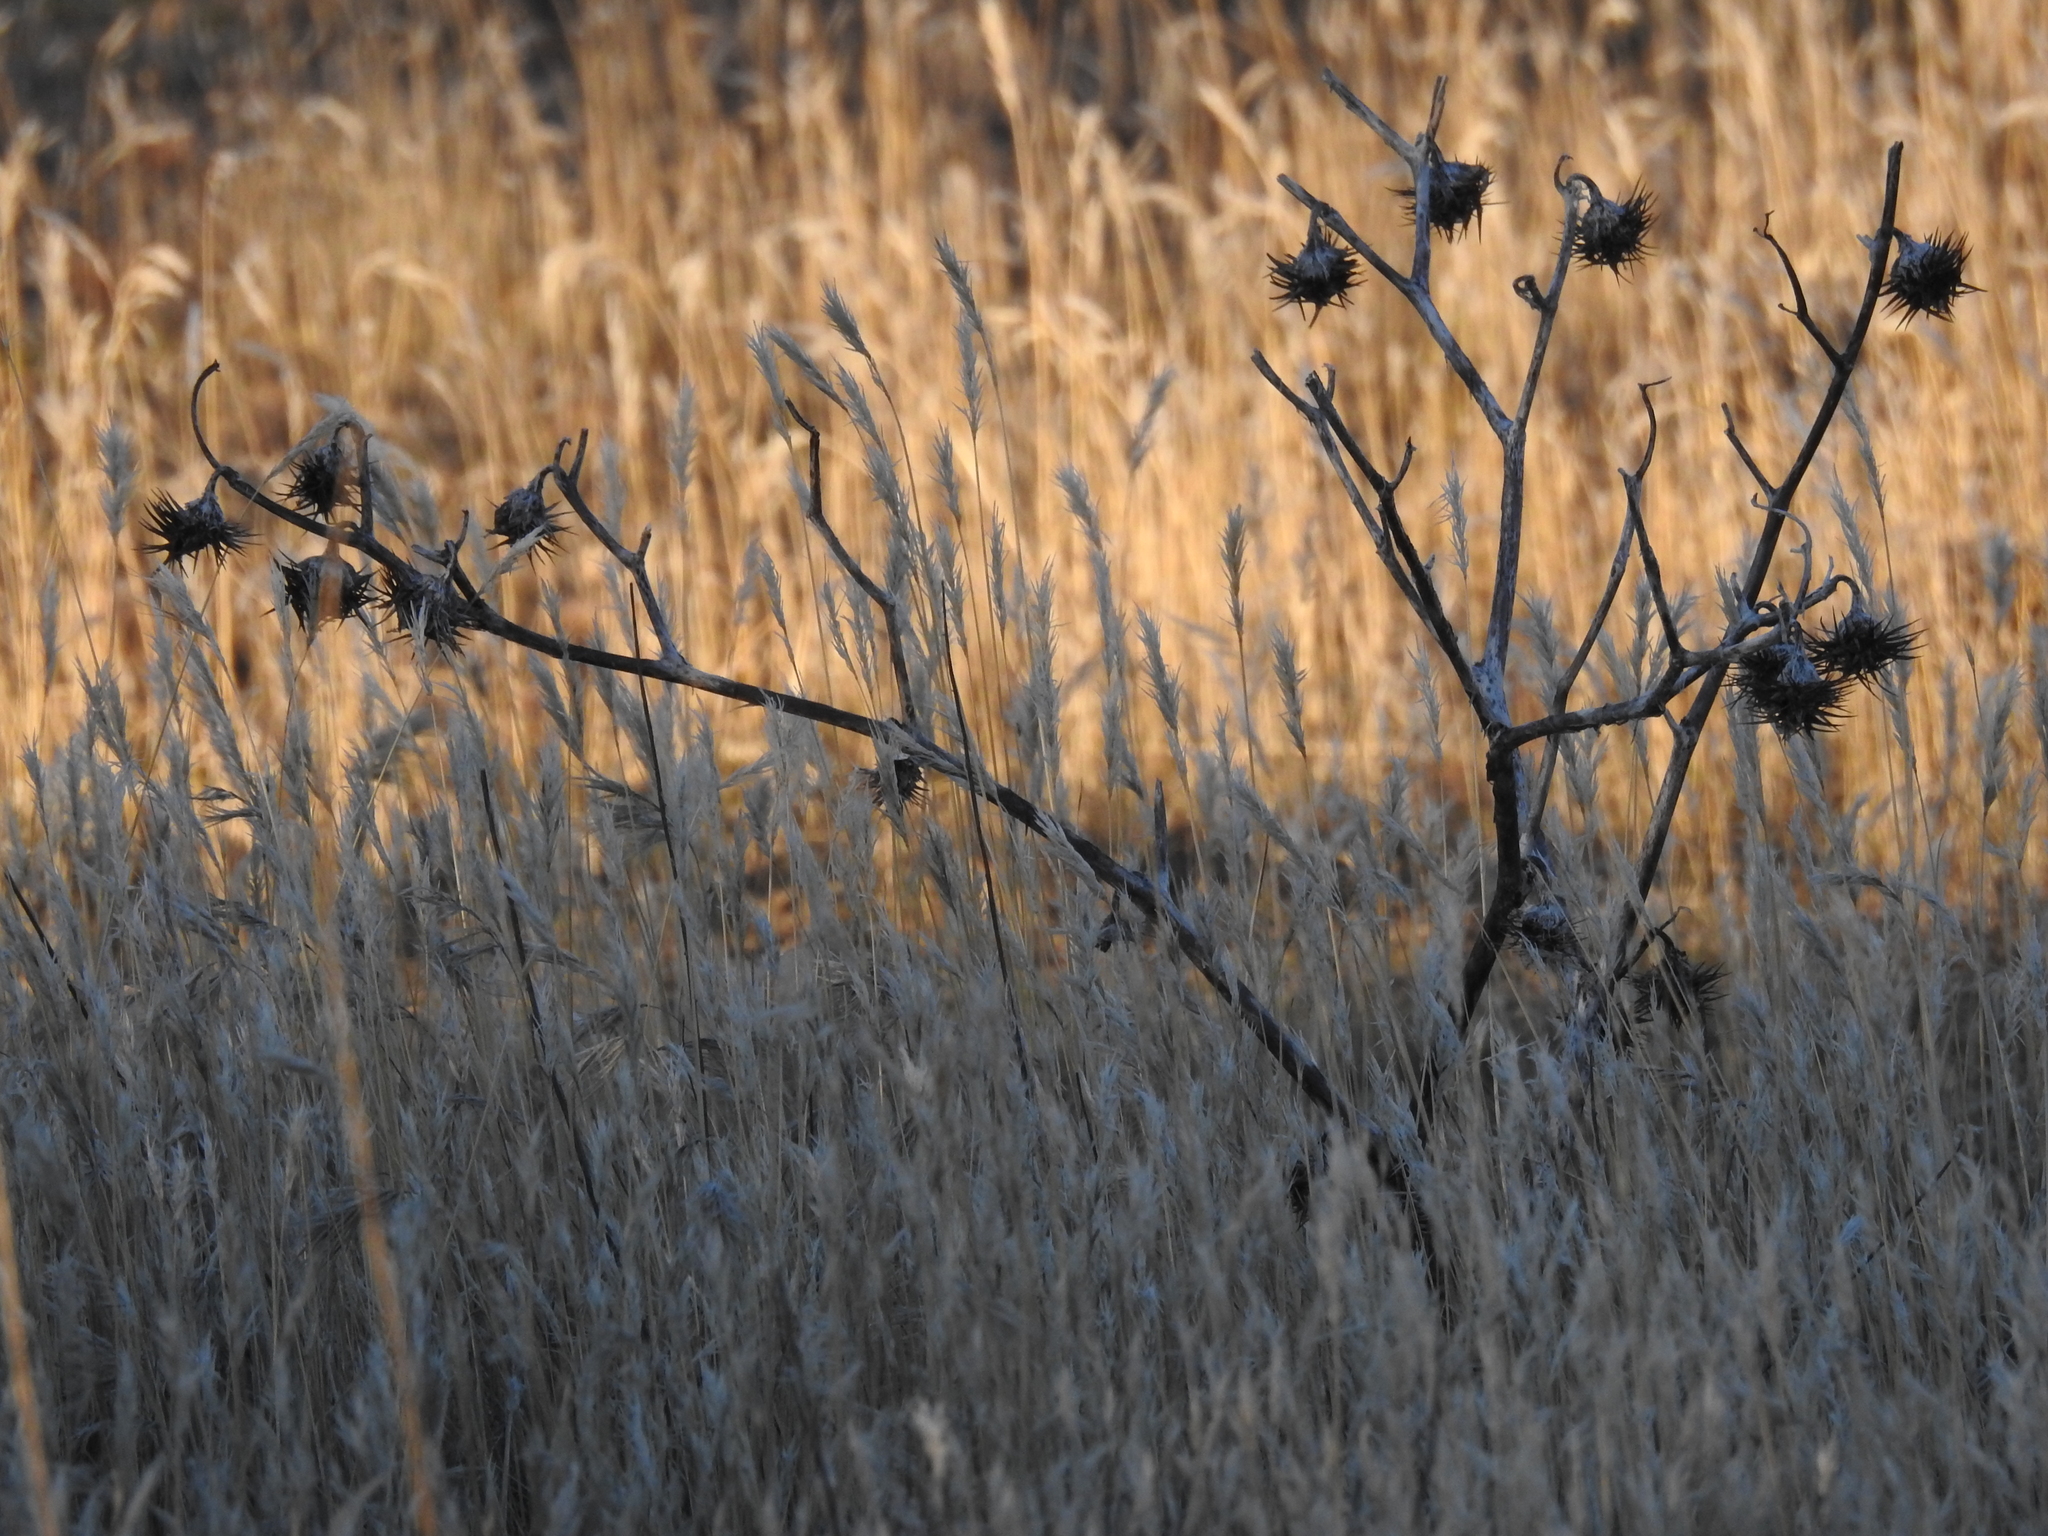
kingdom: Plantae
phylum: Tracheophyta
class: Magnoliopsida
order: Solanales
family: Solanaceae
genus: Datura
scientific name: Datura discolor
